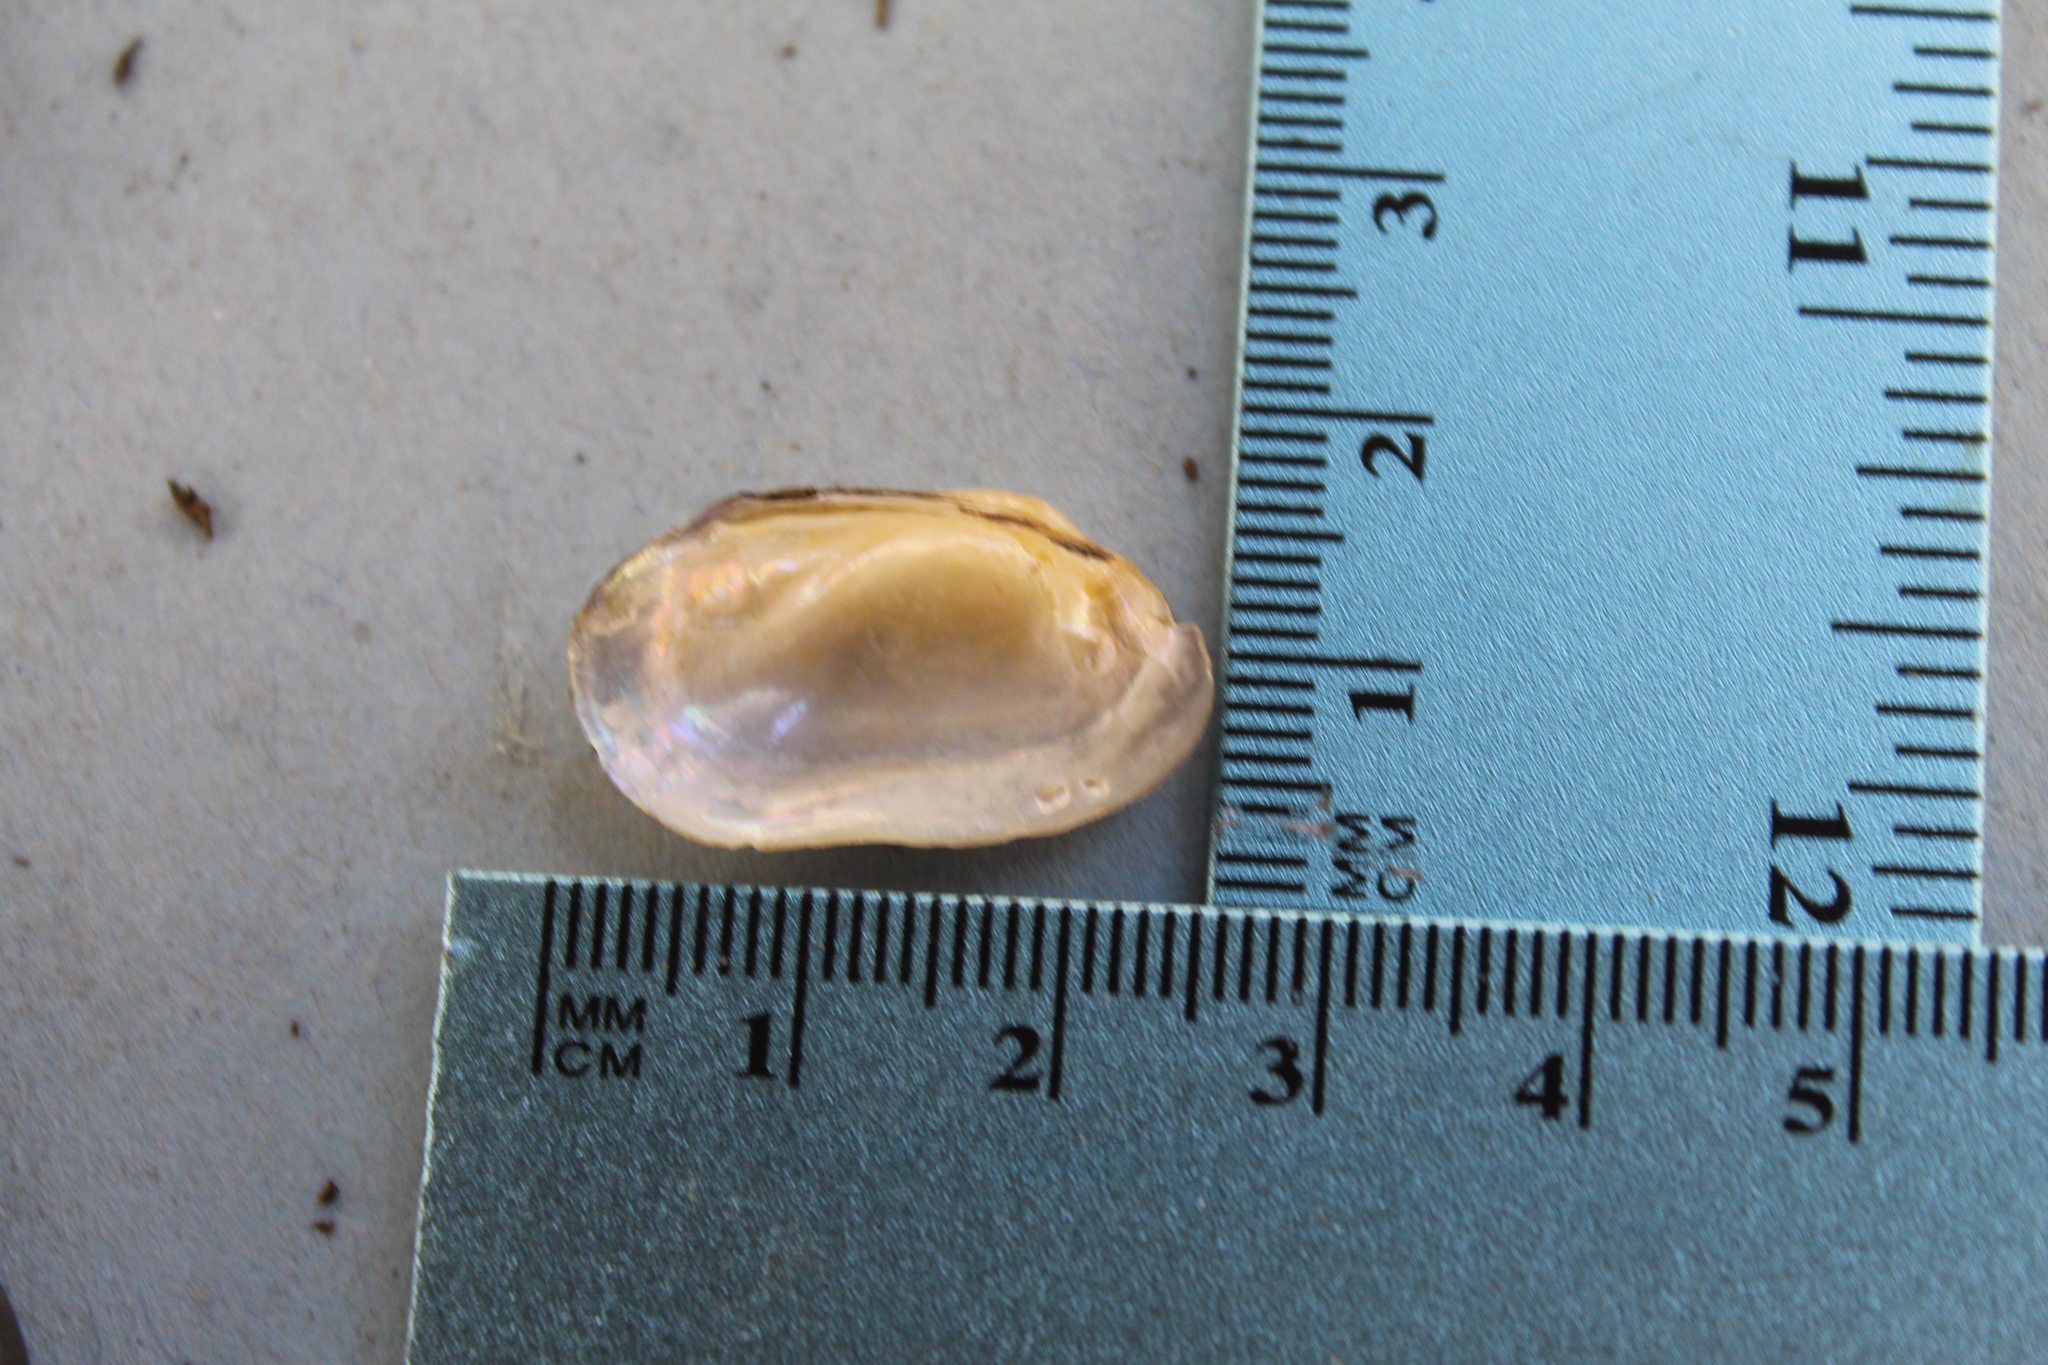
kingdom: Animalia
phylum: Mollusca
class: Bivalvia
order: Unionida
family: Unionidae
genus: Toxolasma
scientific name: Toxolasma parvum
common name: Lilliput
